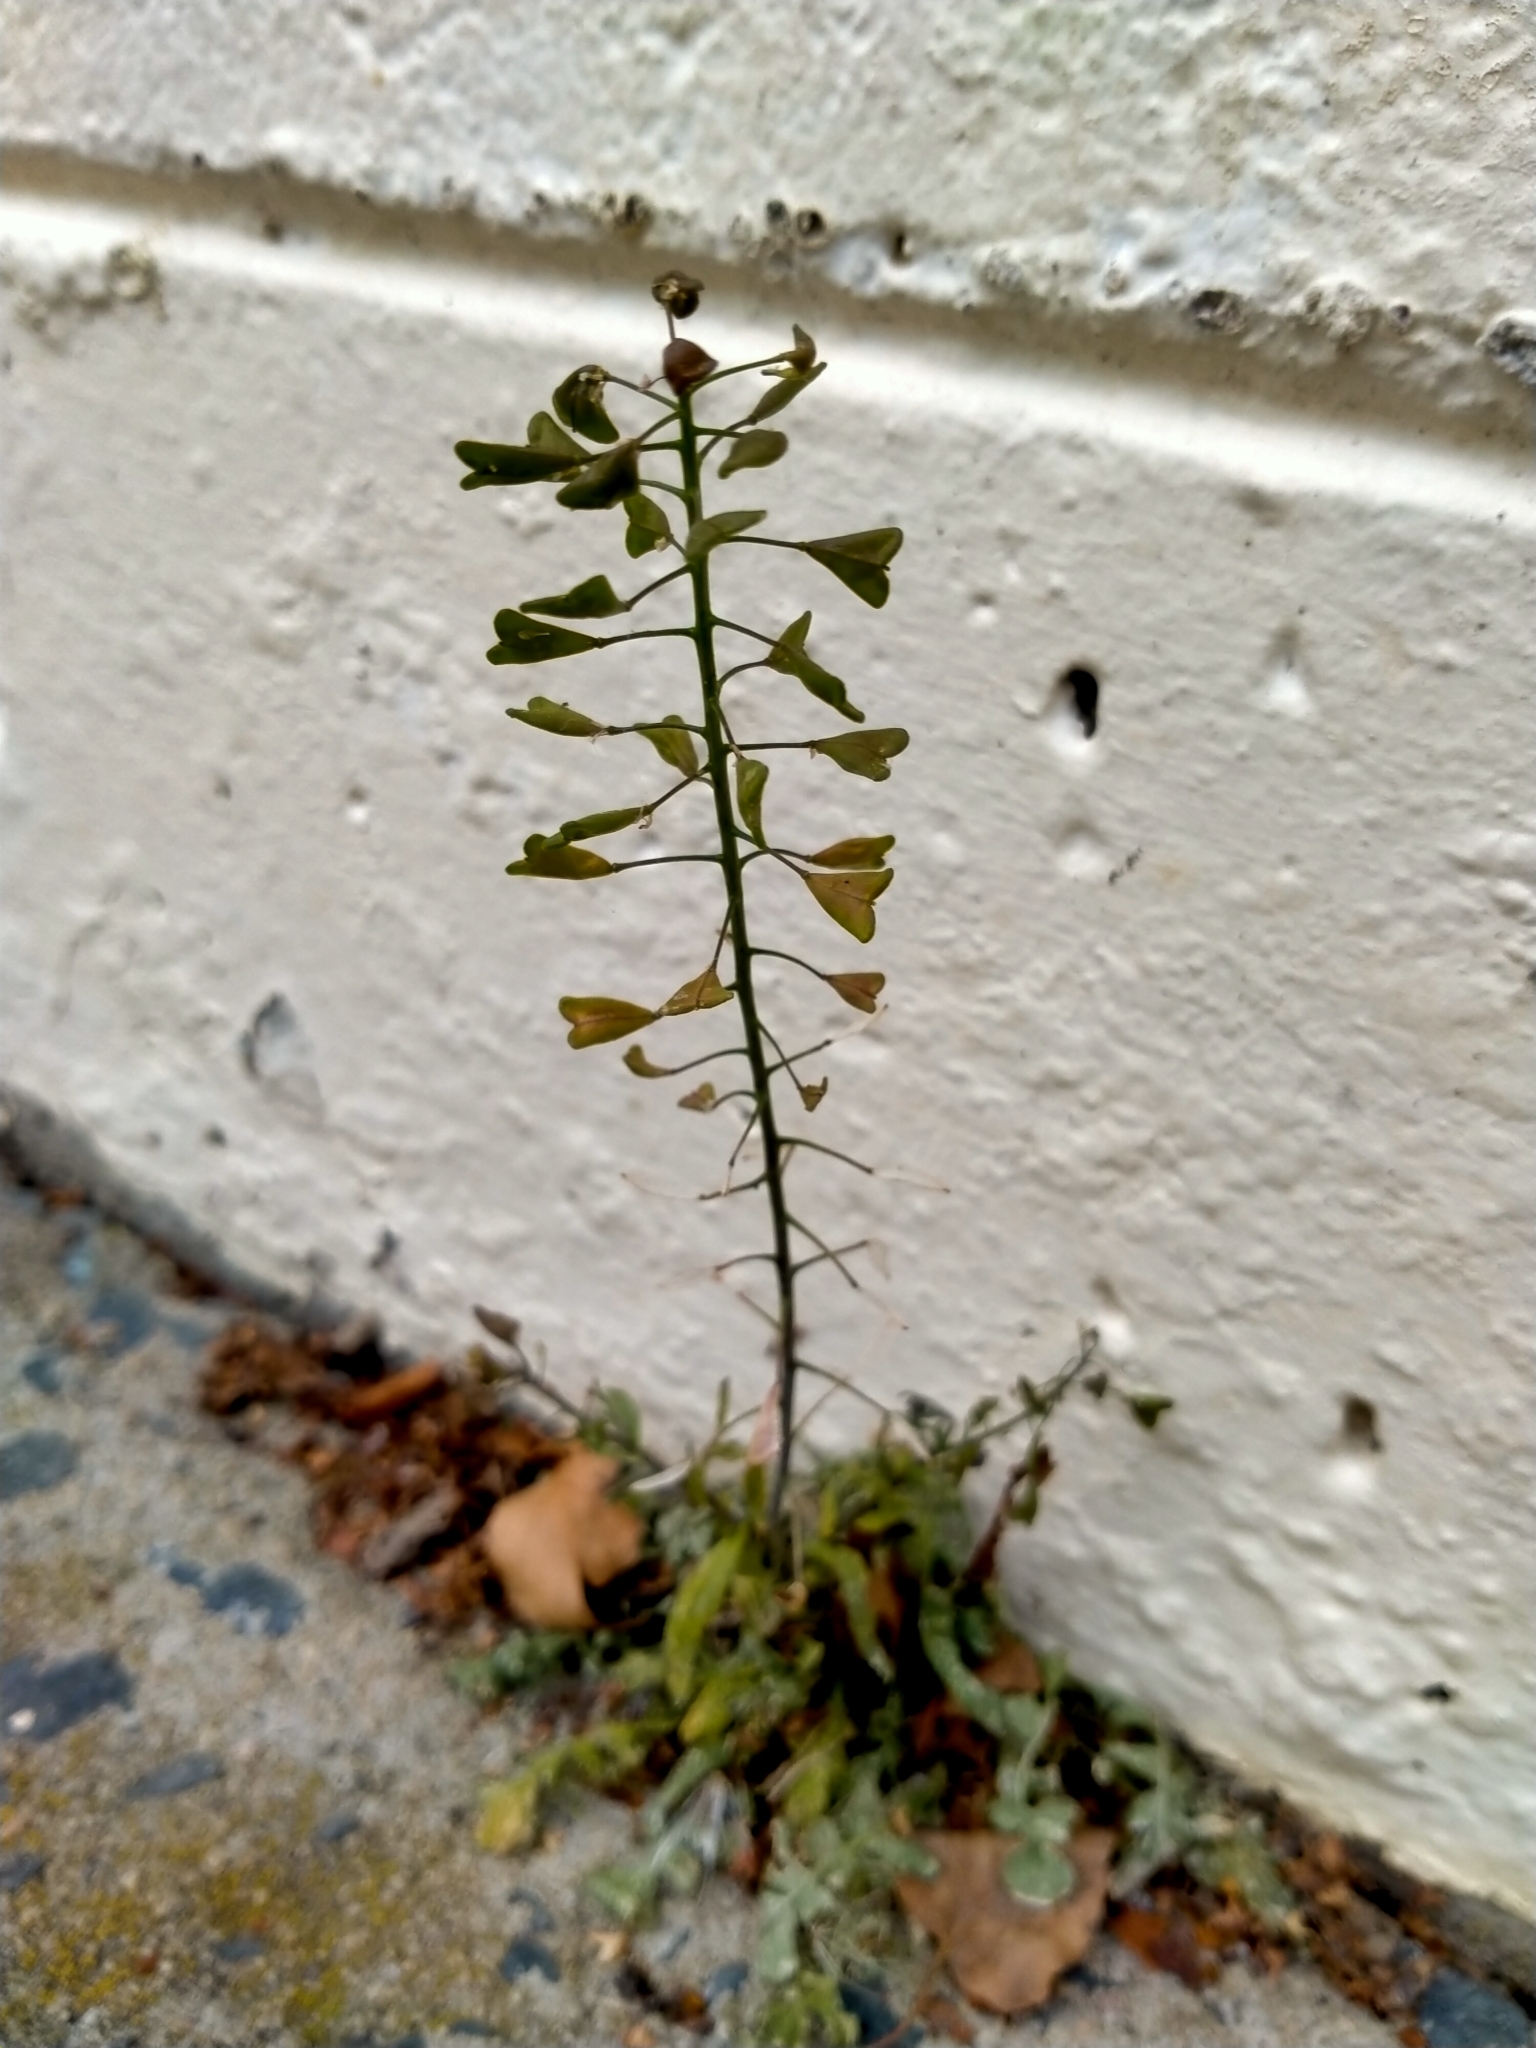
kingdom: Plantae
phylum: Tracheophyta
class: Magnoliopsida
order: Brassicales
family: Brassicaceae
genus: Capsella
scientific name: Capsella bursa-pastoris
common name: Shepherd's purse
